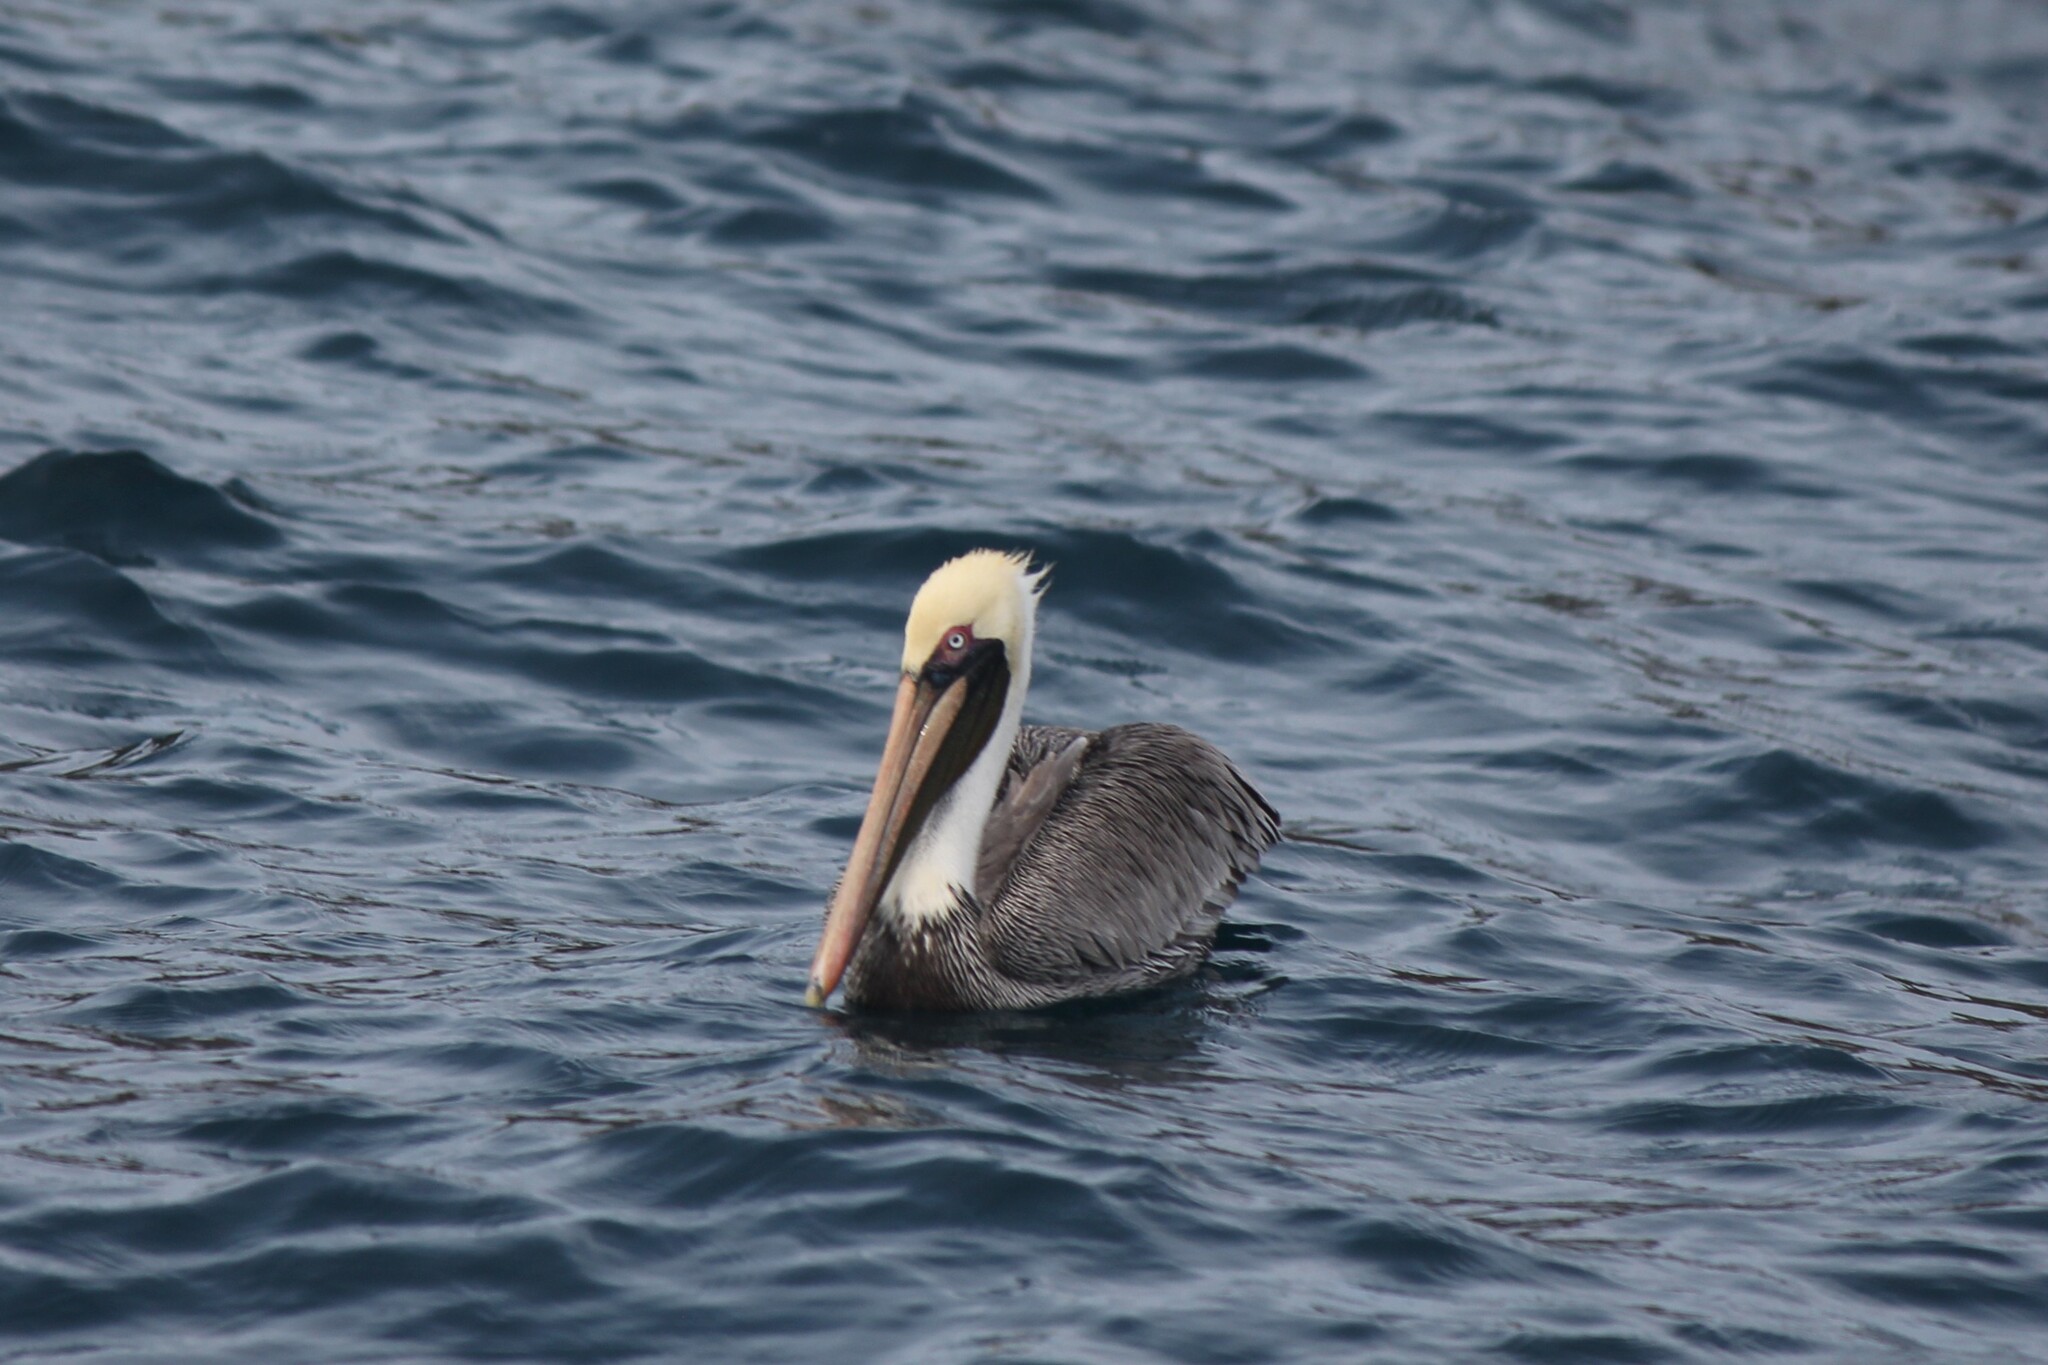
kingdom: Animalia
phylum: Chordata
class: Aves
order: Pelecaniformes
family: Pelecanidae
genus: Pelecanus
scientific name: Pelecanus occidentalis
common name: Brown pelican
